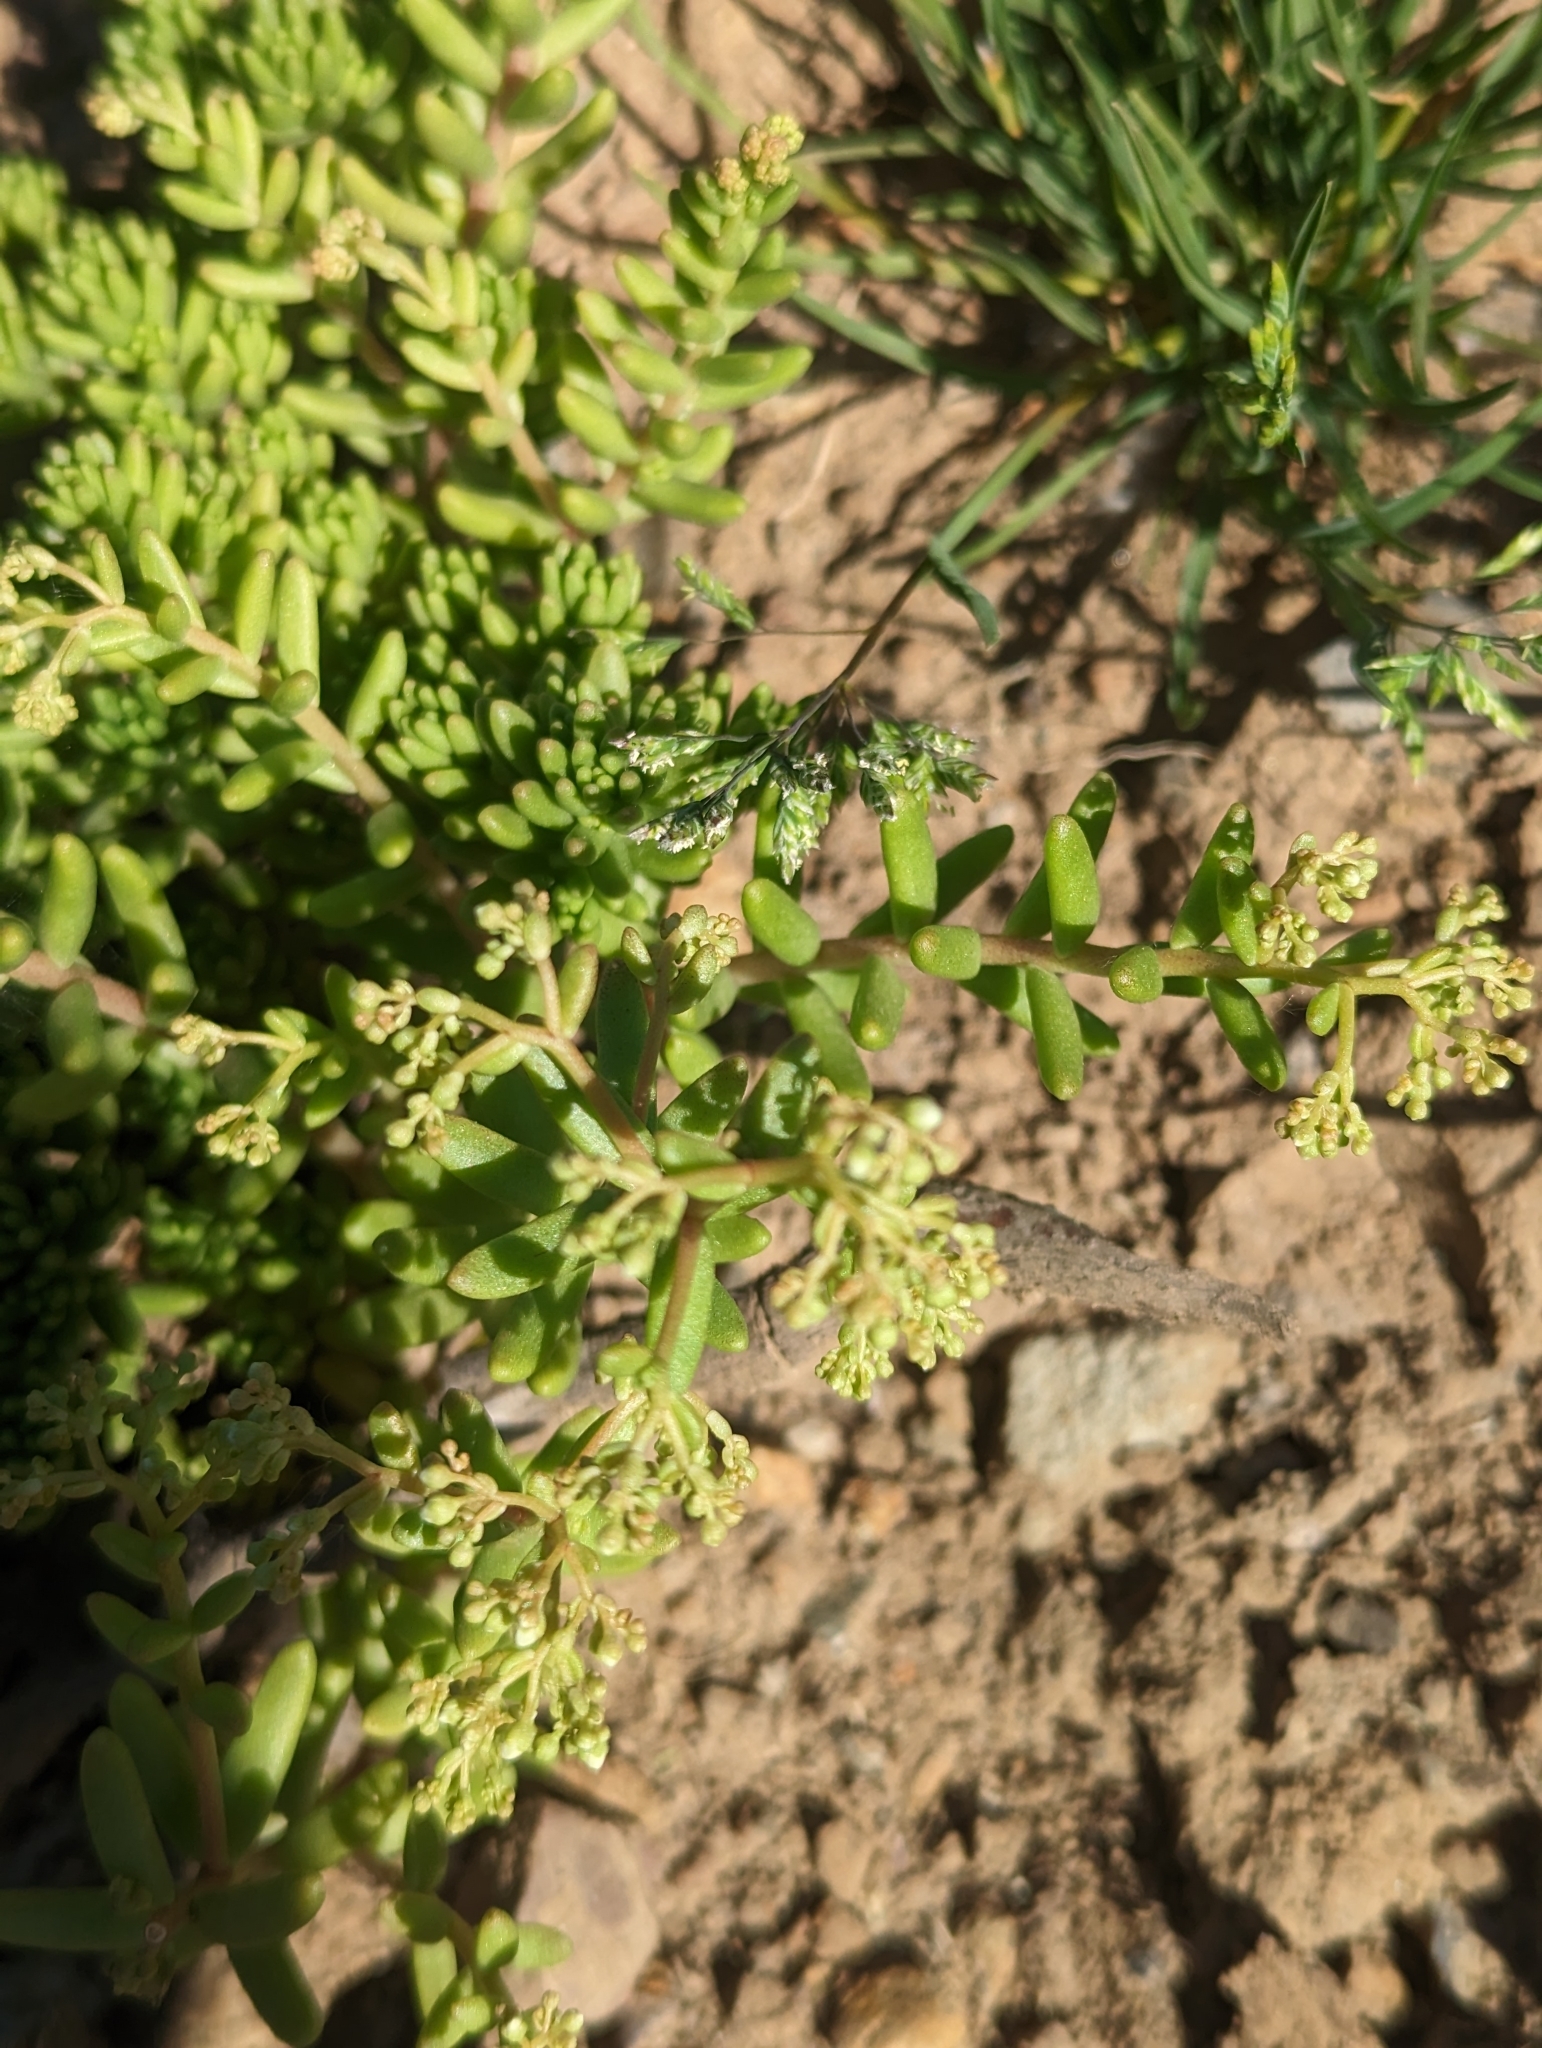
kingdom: Plantae
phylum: Tracheophyta
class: Magnoliopsida
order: Saxifragales
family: Crassulaceae
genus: Sedum
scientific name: Sedum album
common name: White stonecrop
